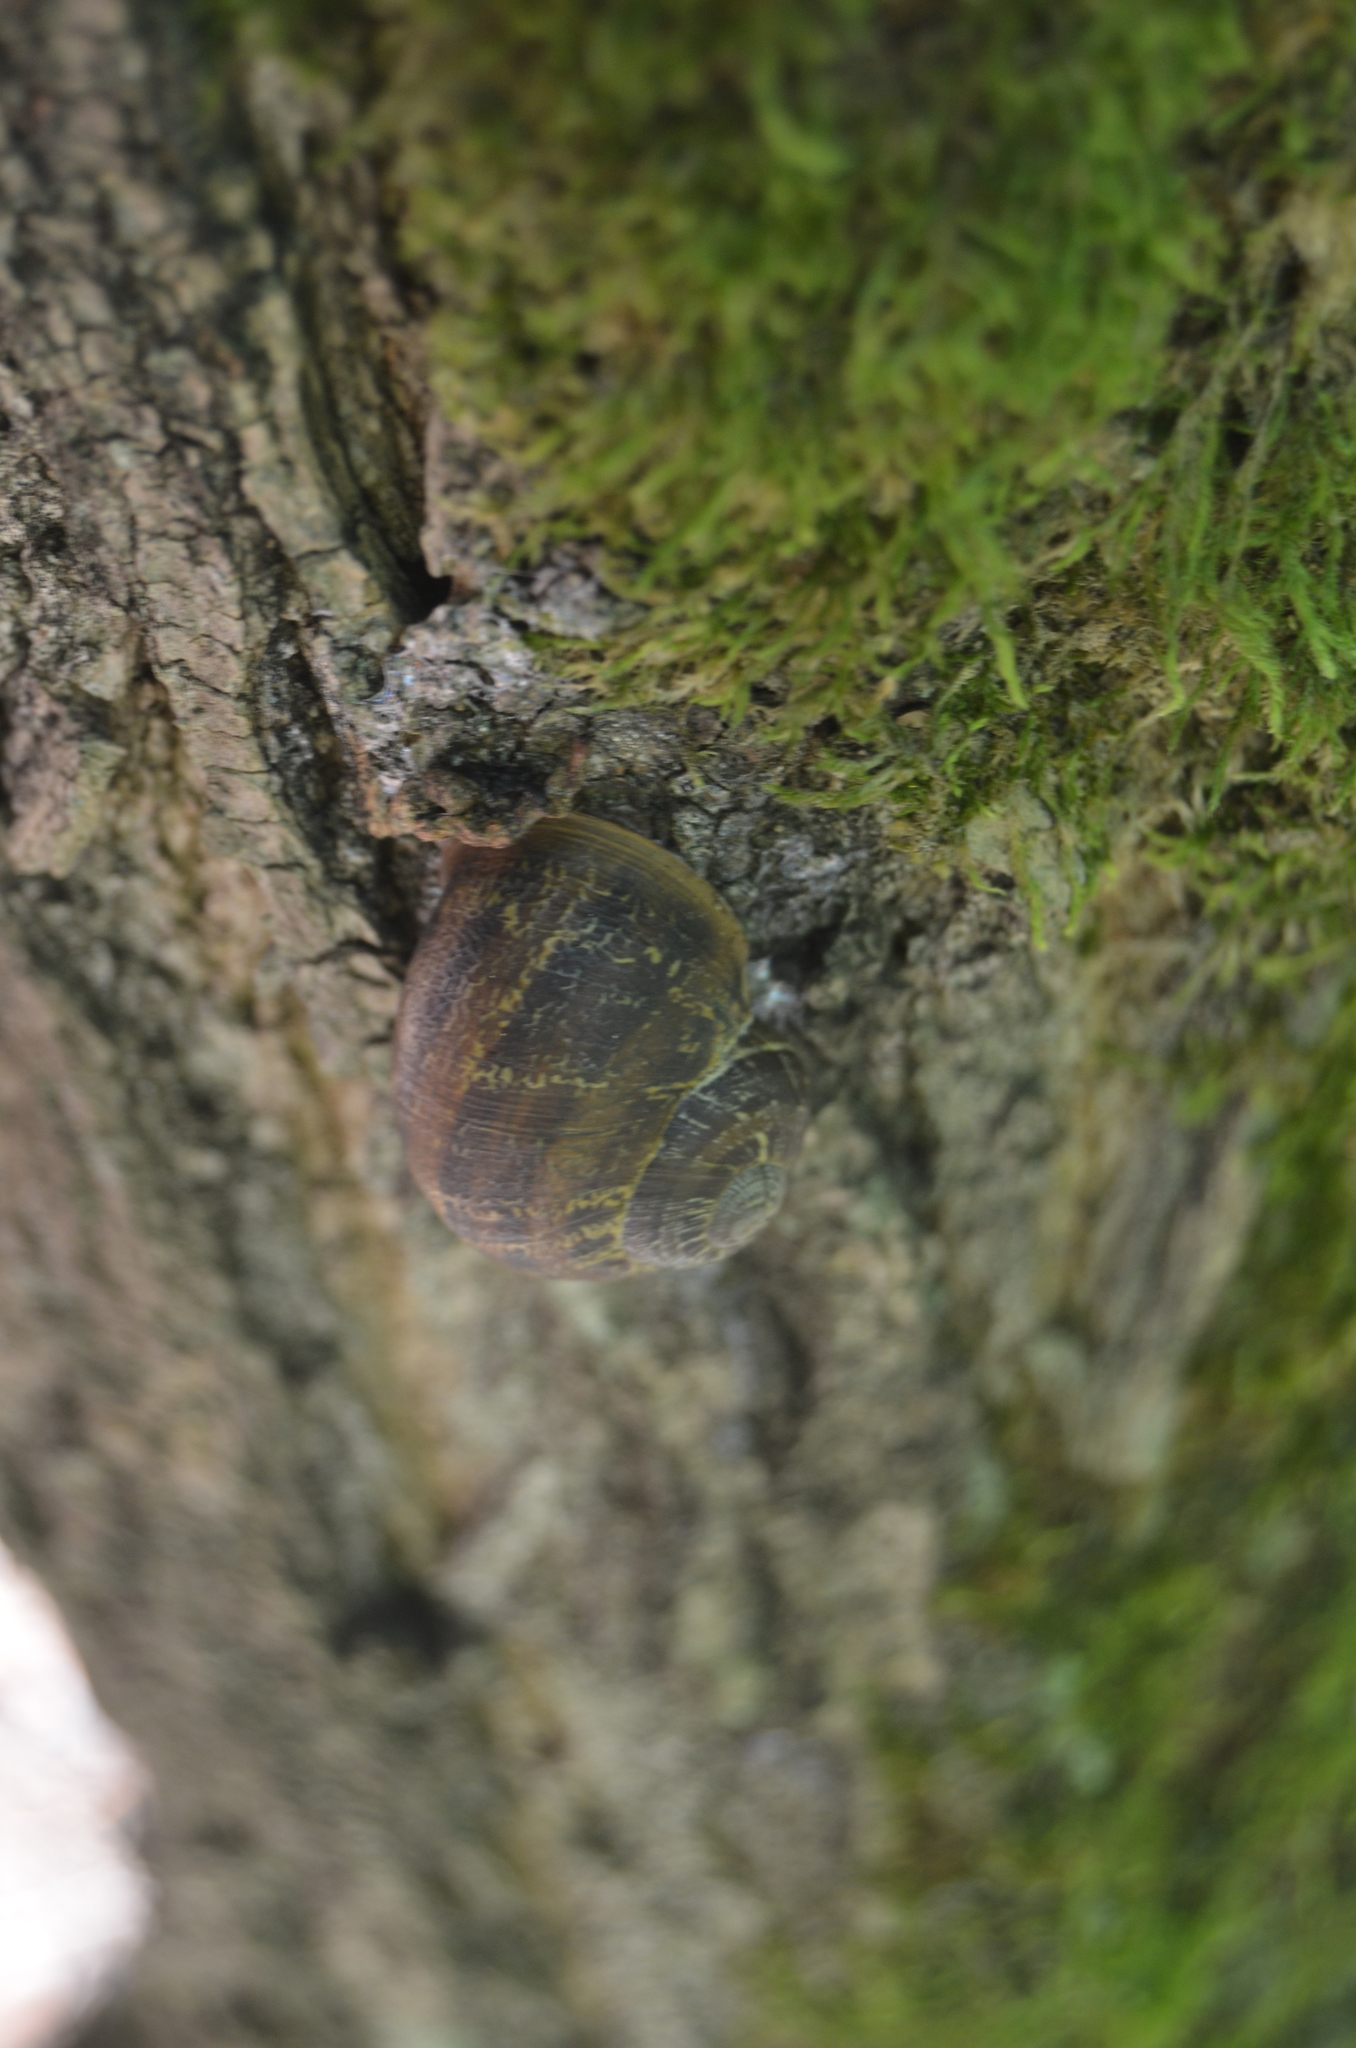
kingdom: Animalia
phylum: Mollusca
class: Gastropoda
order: Stylommatophora
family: Helicidae
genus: Cornu
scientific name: Cornu aspersum
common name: Brown garden snail
